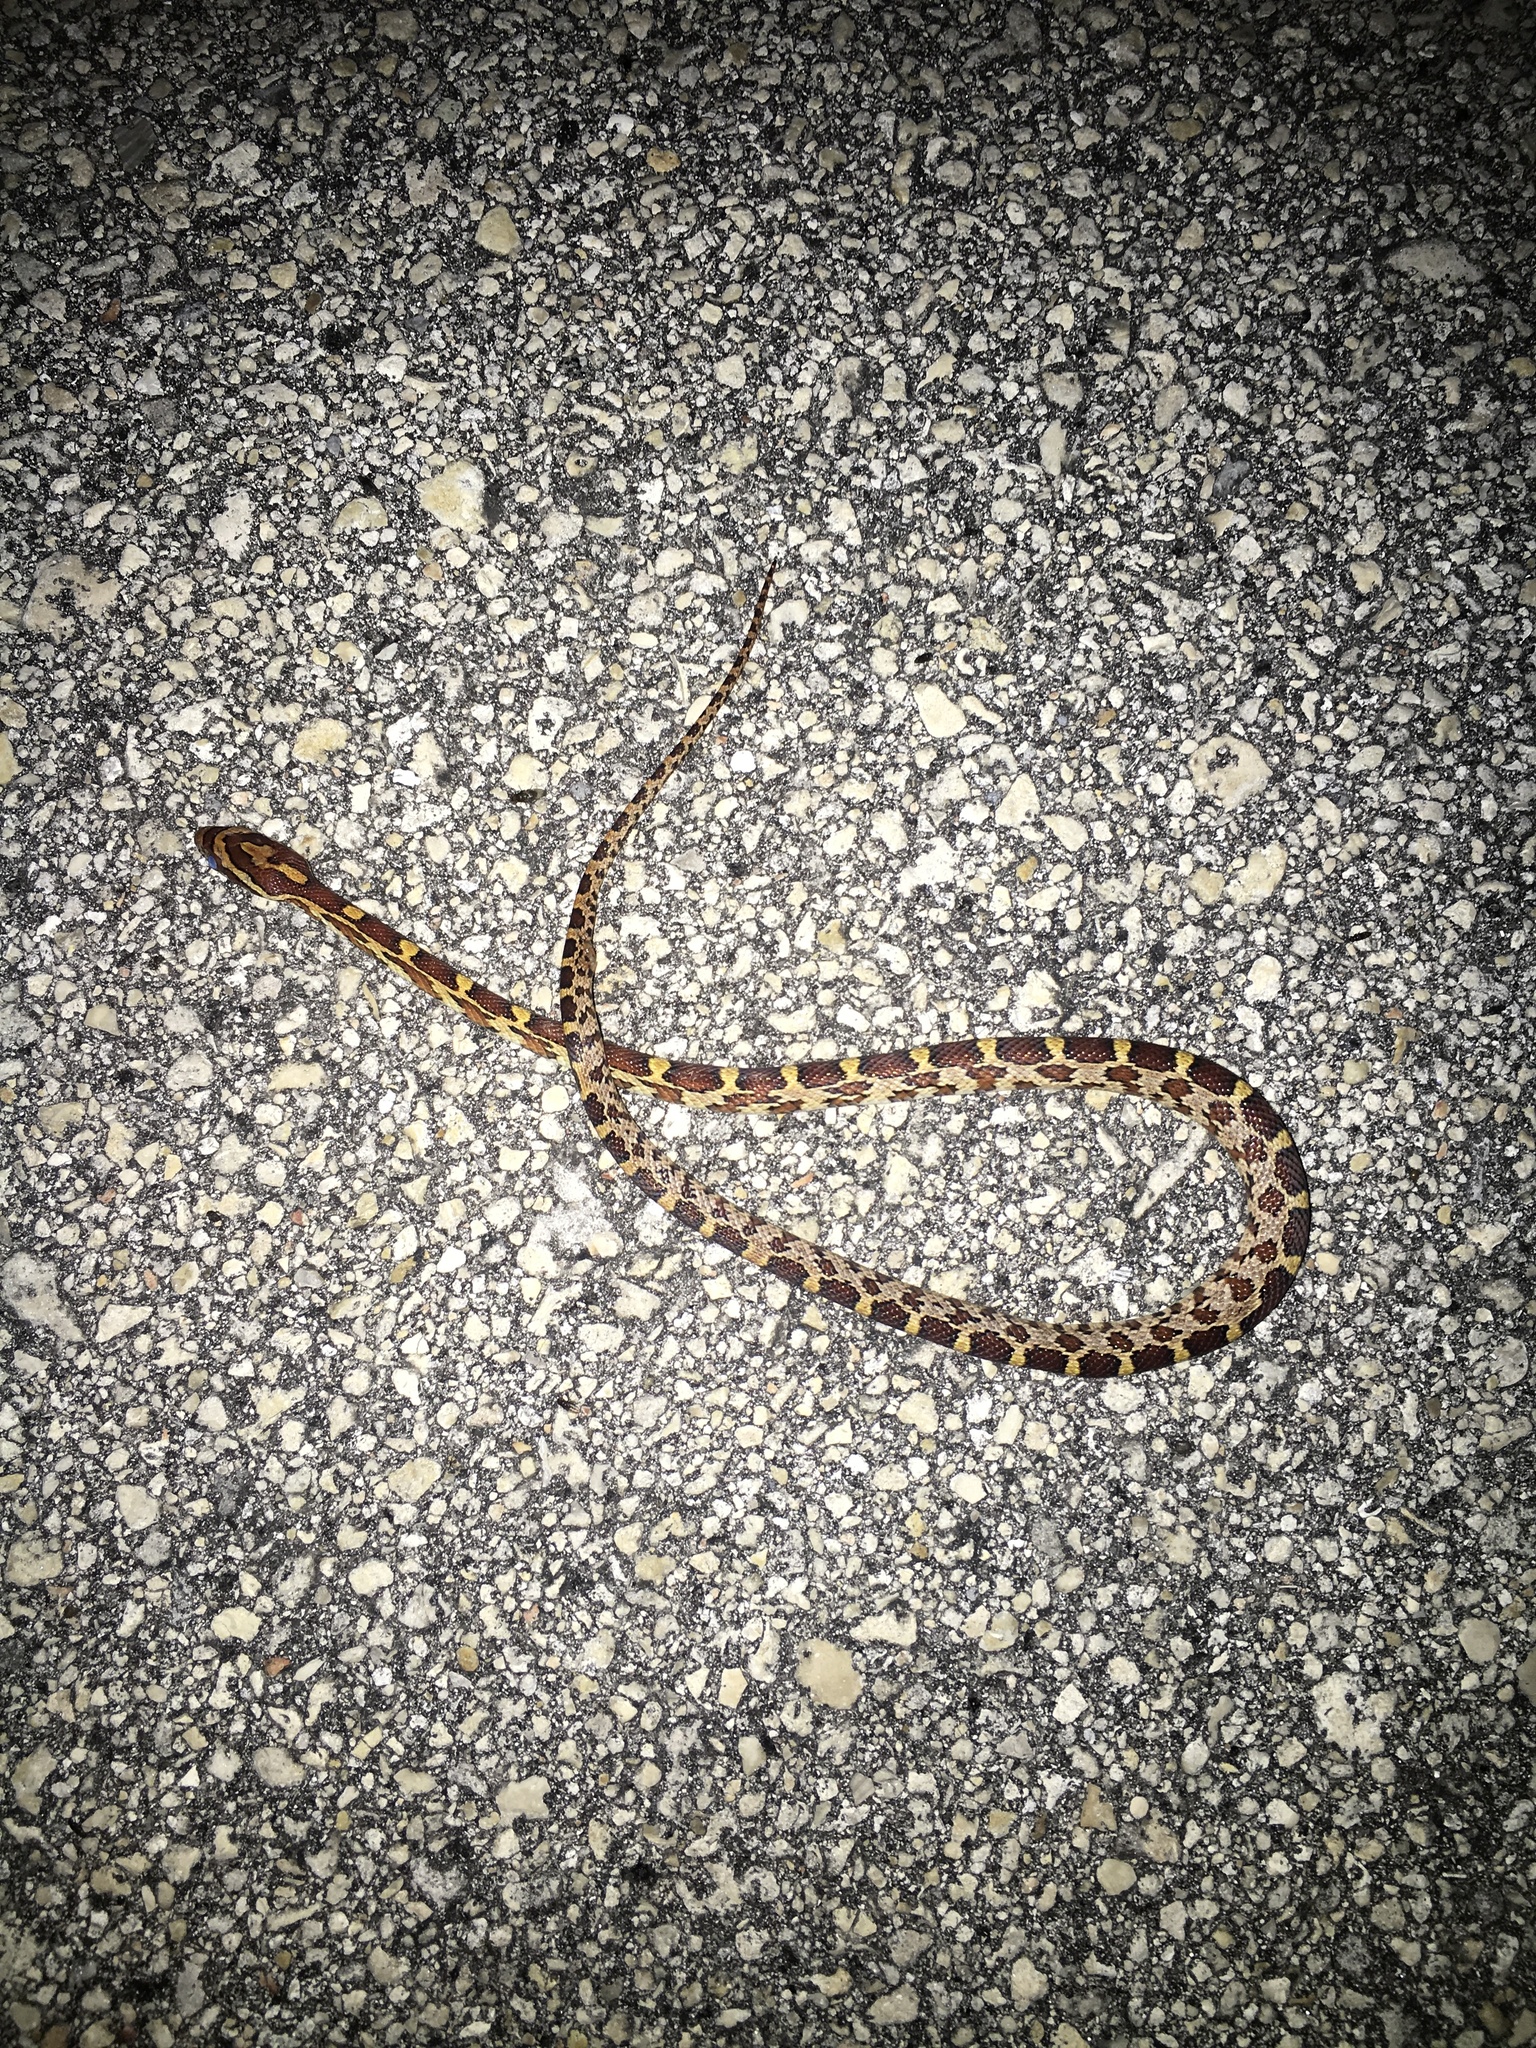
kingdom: Animalia
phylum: Chordata
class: Squamata
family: Colubridae
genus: Pantherophis
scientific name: Pantherophis guttatus
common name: Red cornsnake
